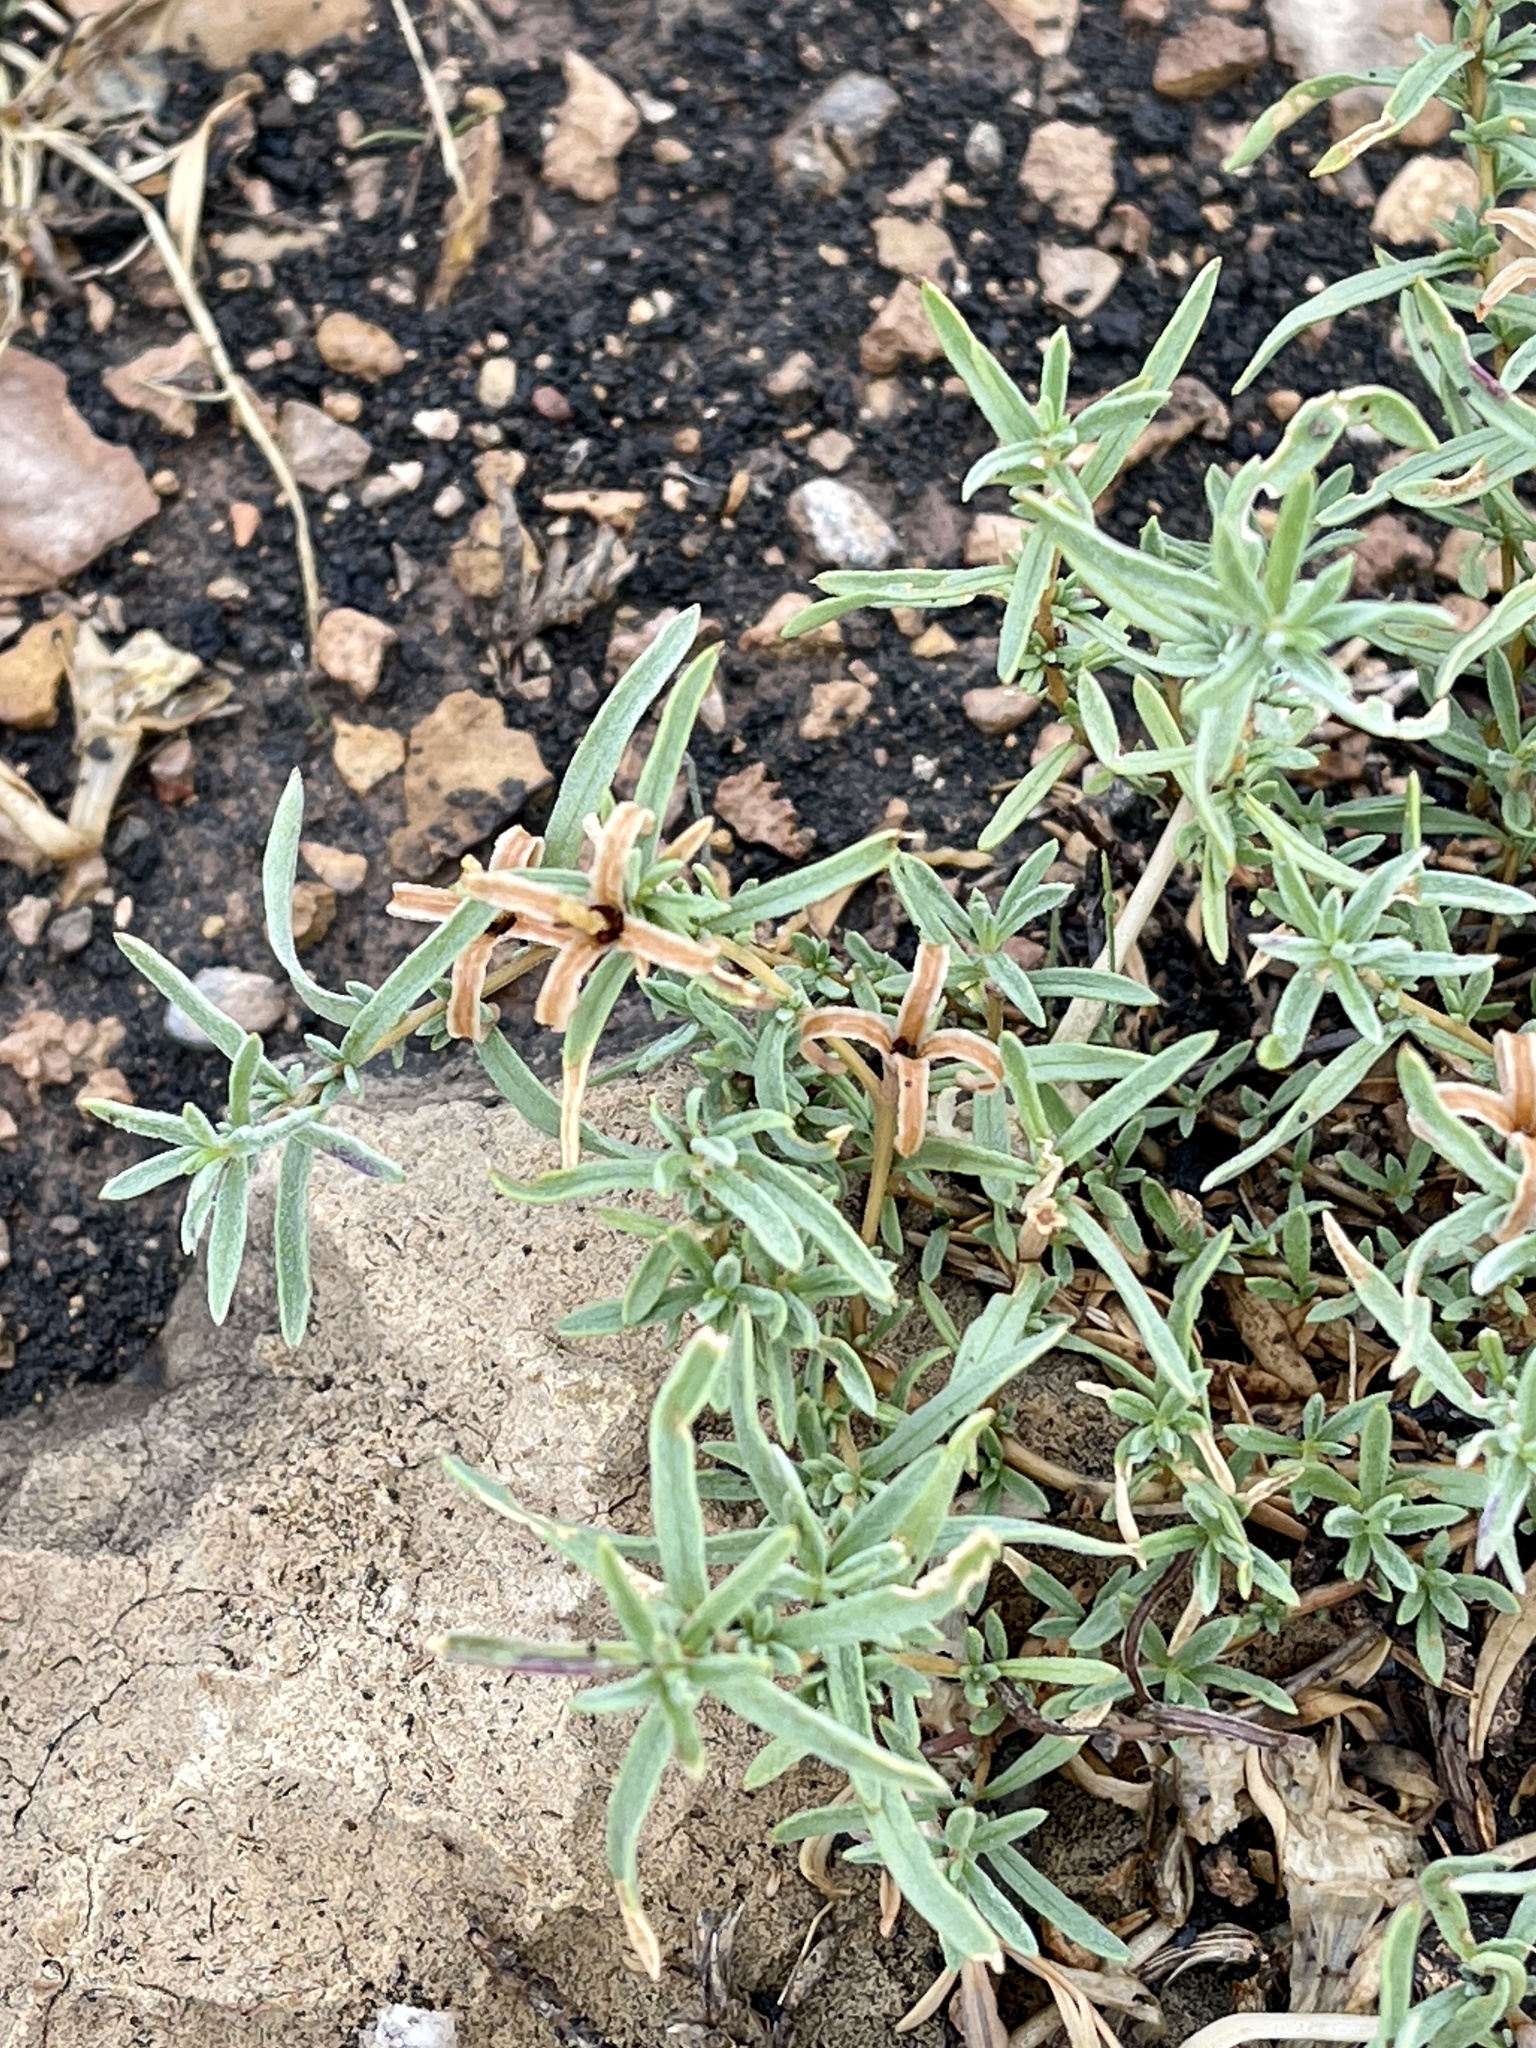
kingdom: Plantae
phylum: Tracheophyta
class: Magnoliopsida
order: Asterales
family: Asteraceae
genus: Zinnia
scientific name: Zinnia grandiflora
